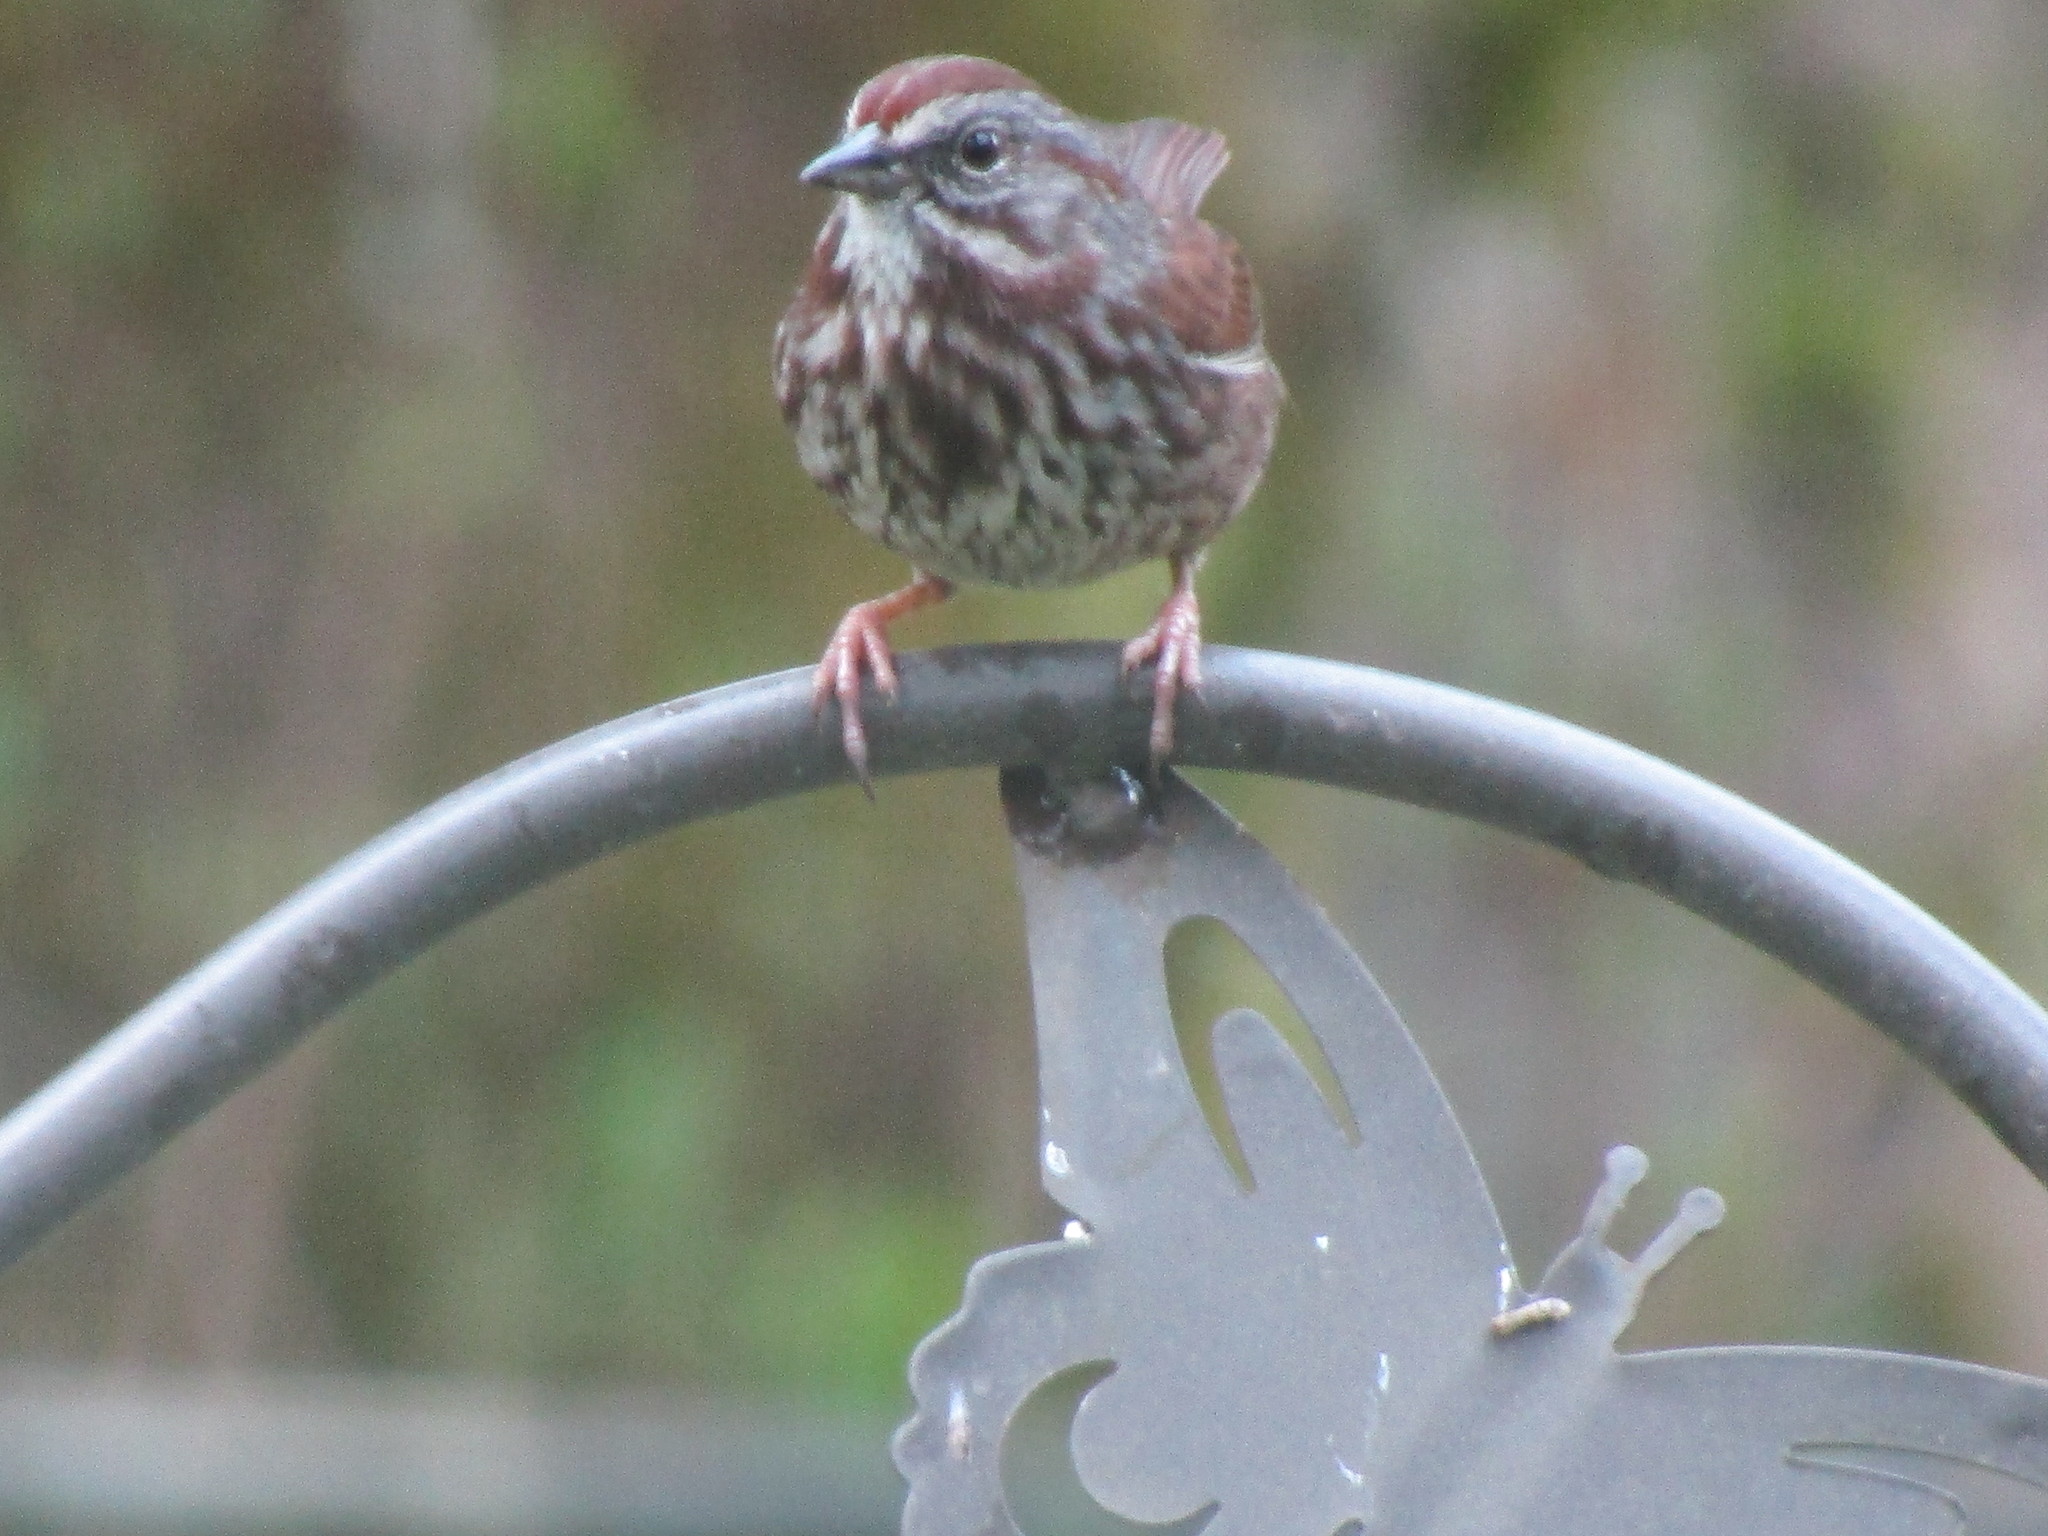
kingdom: Animalia
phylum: Chordata
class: Aves
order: Passeriformes
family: Passerellidae
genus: Melospiza
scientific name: Melospiza melodia
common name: Song sparrow
